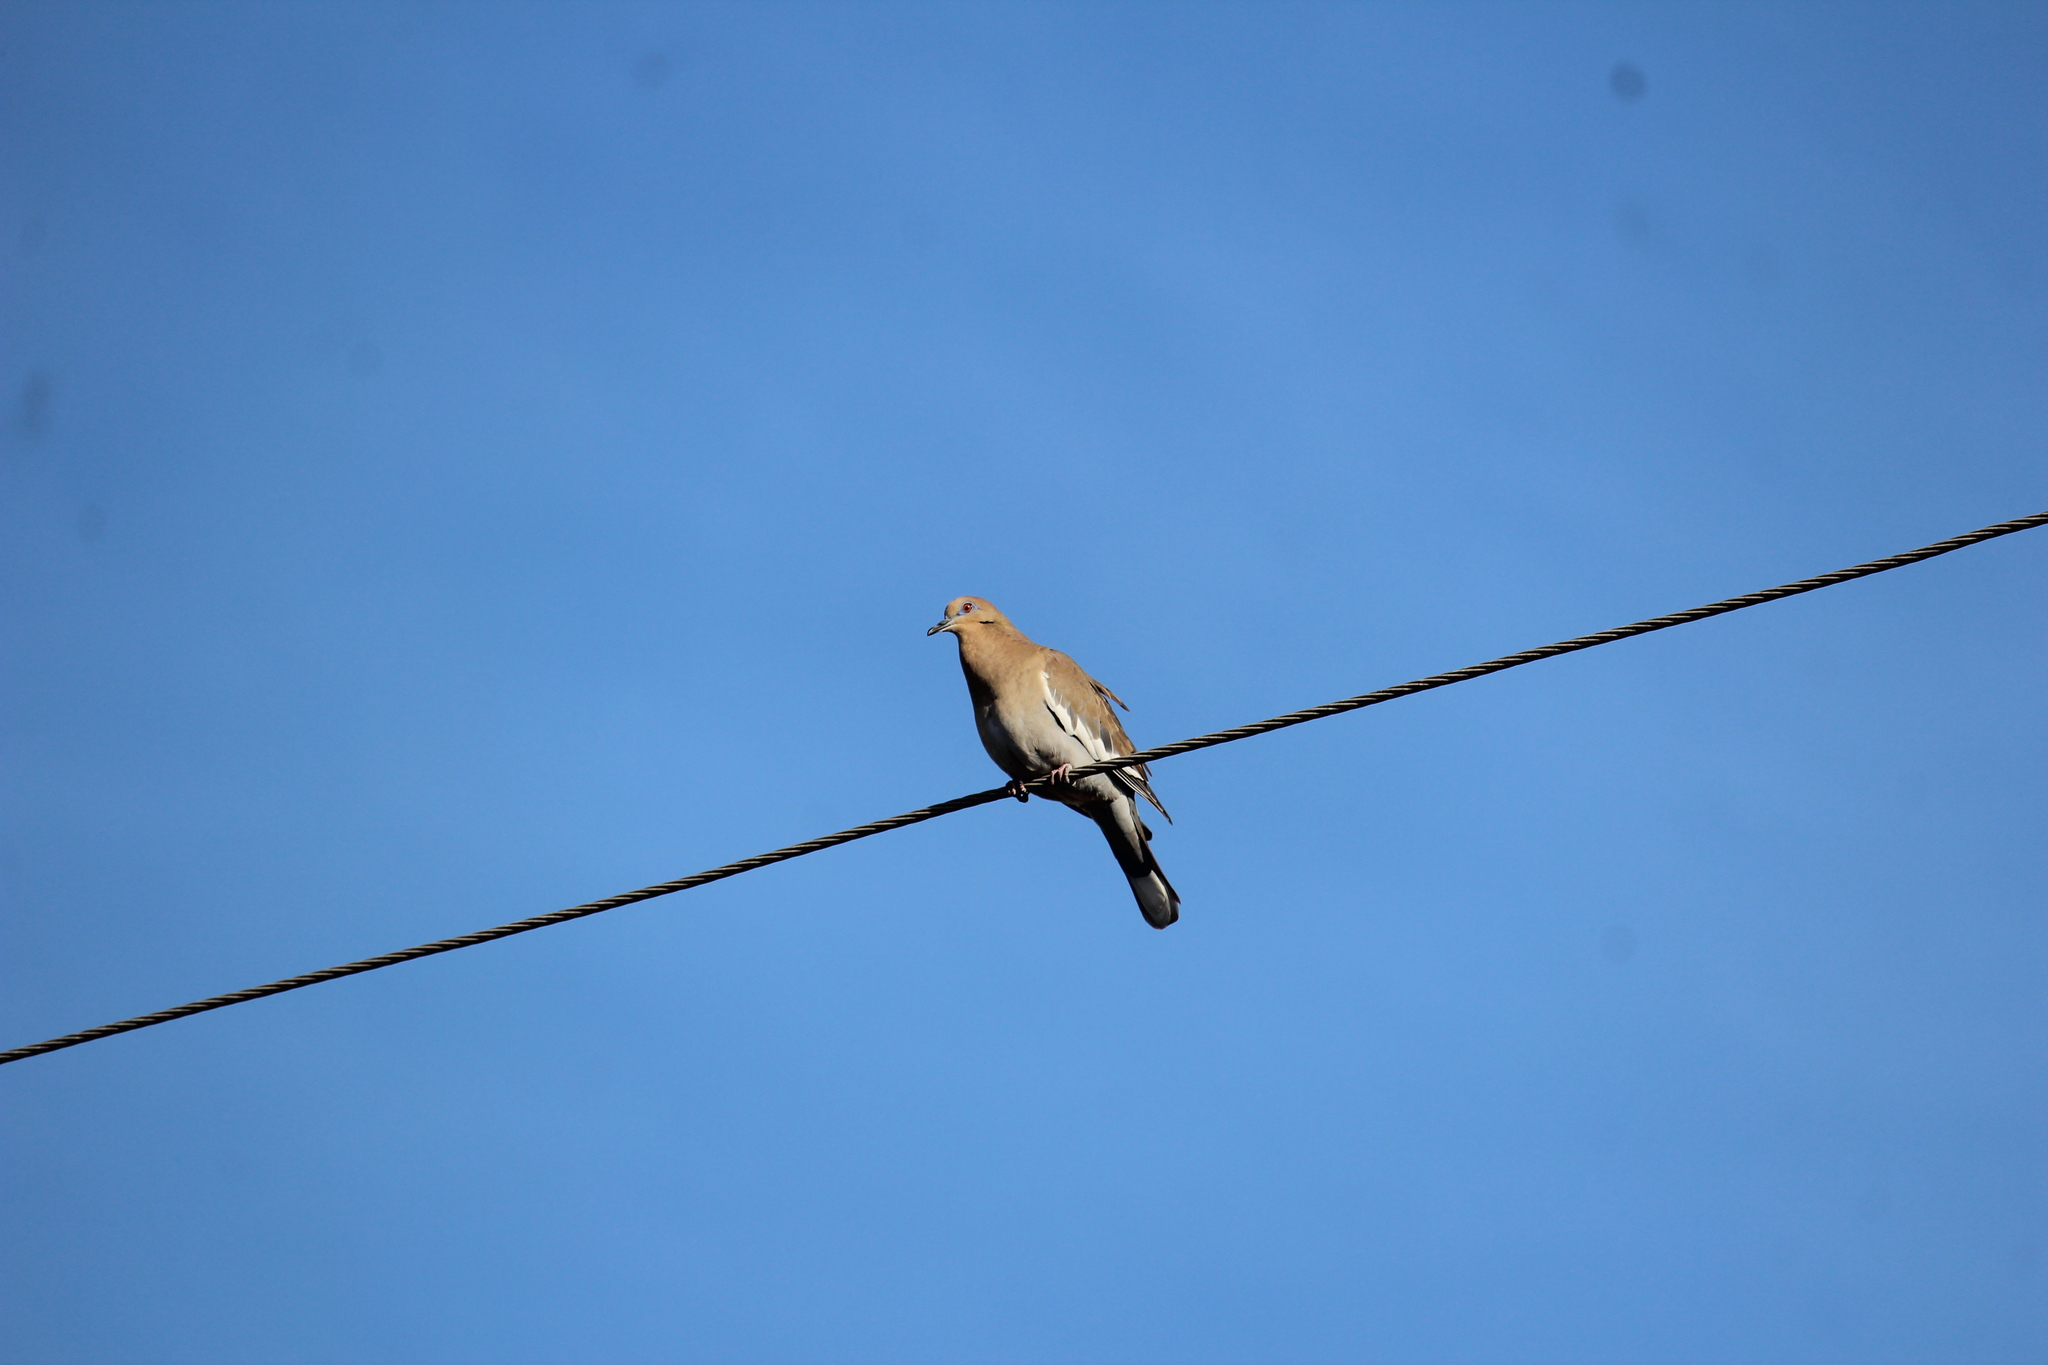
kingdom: Animalia
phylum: Chordata
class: Aves
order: Columbiformes
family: Columbidae
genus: Zenaida
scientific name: Zenaida asiatica
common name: White-winged dove
